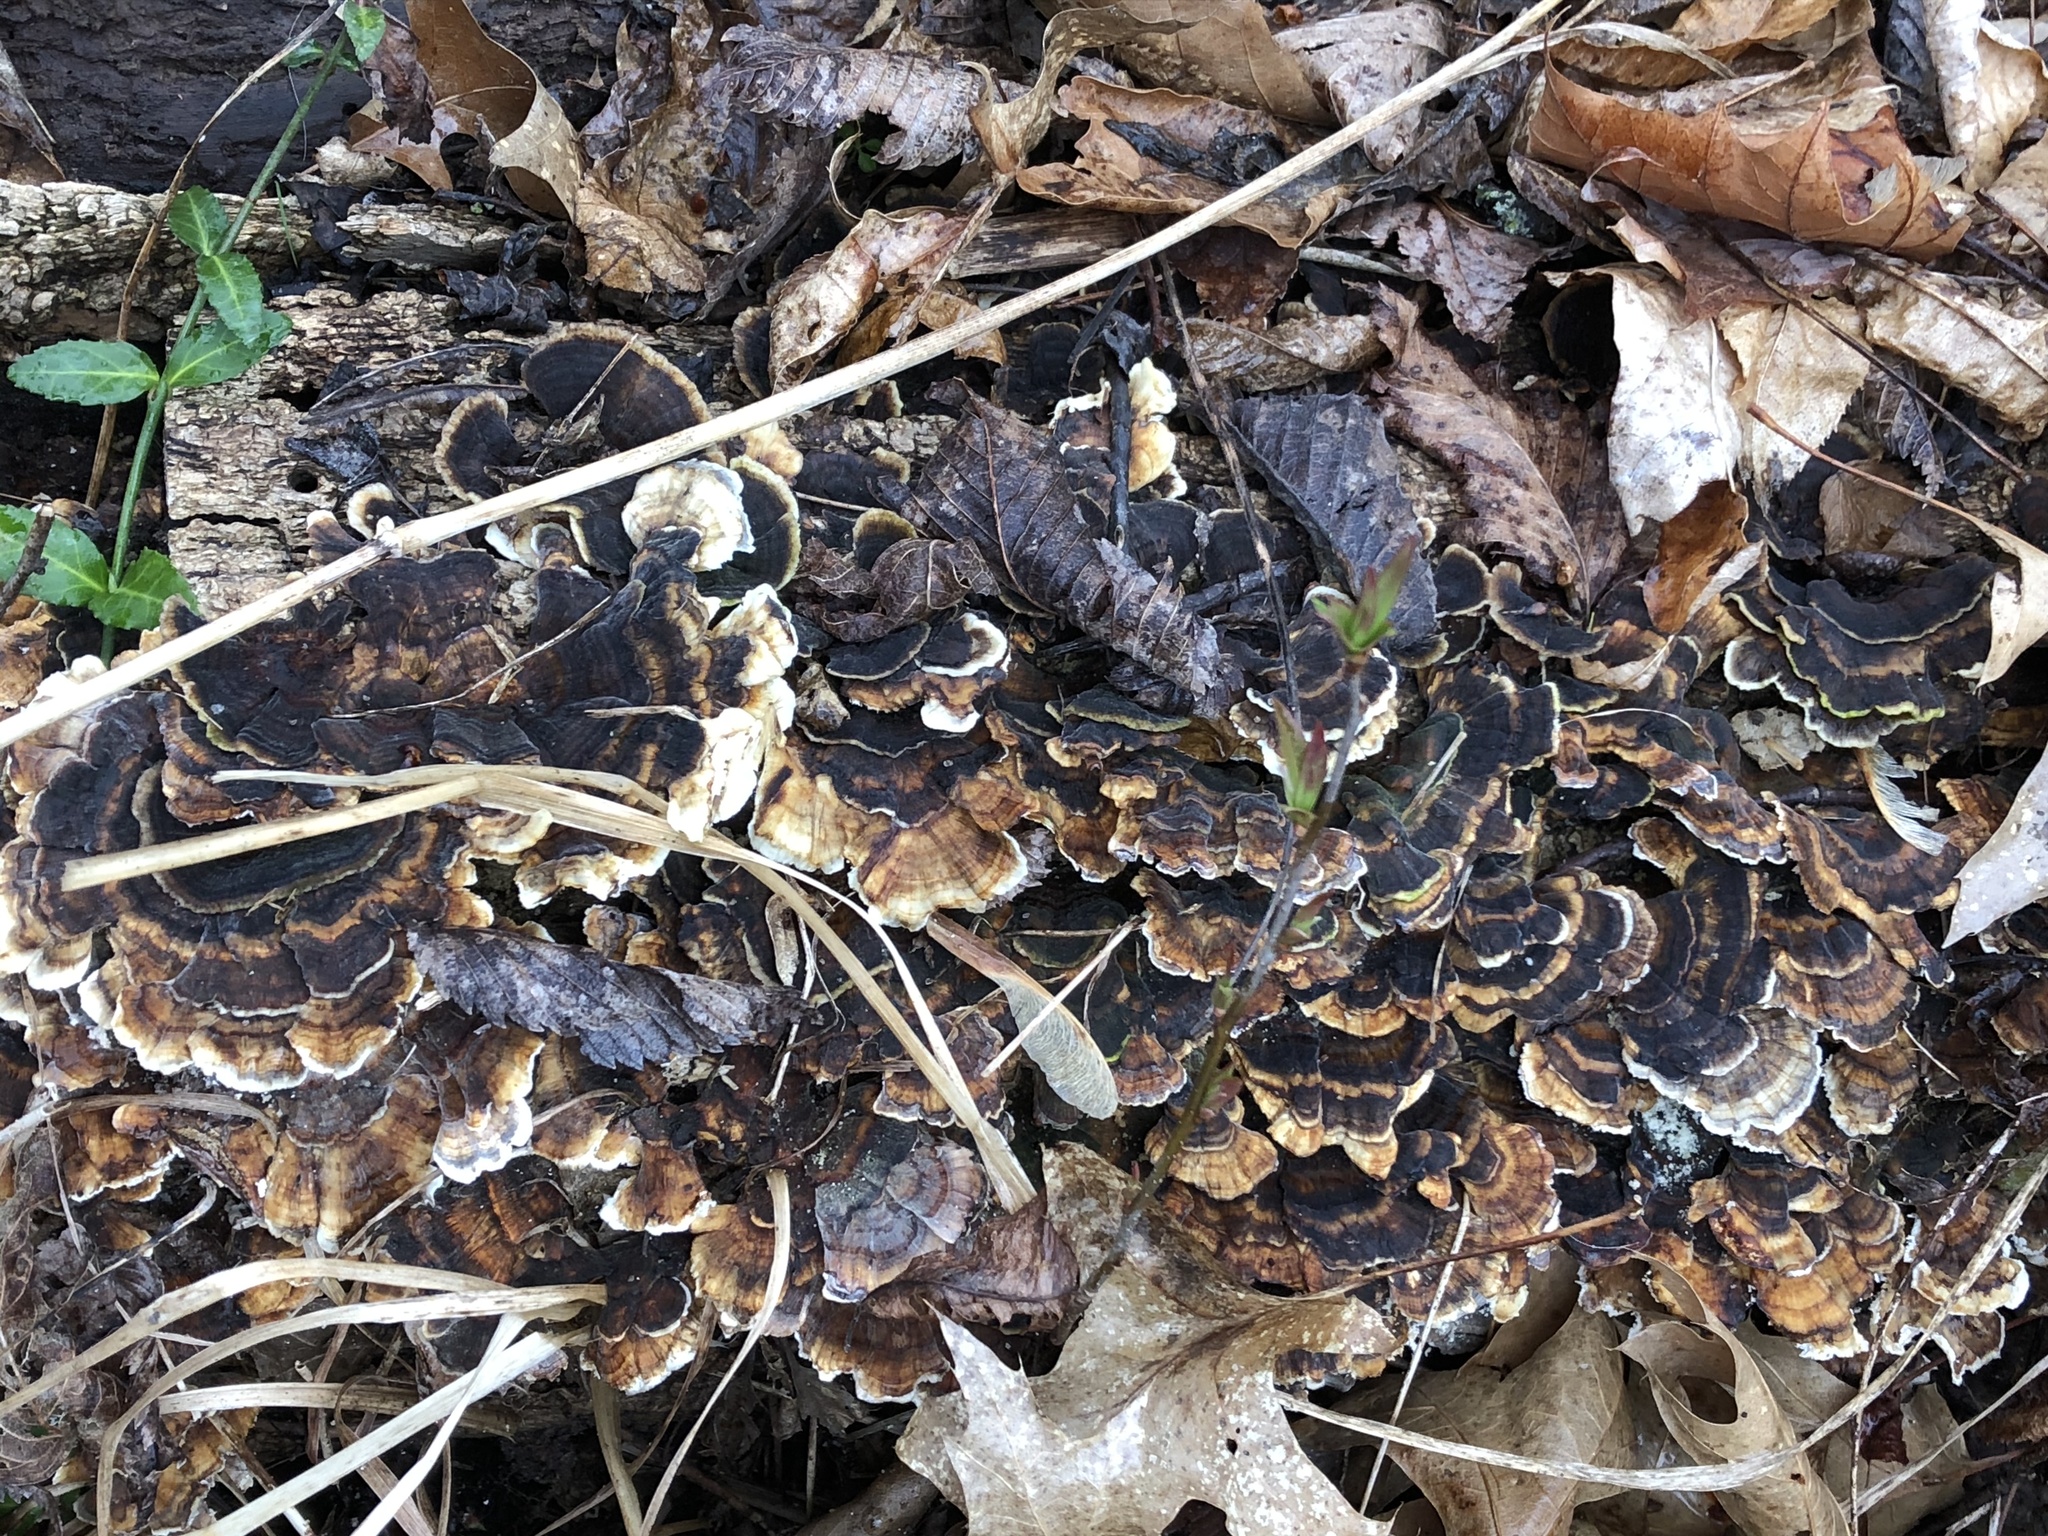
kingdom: Fungi
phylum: Basidiomycota
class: Agaricomycetes
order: Polyporales
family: Polyporaceae
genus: Trametes
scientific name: Trametes versicolor
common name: Turkeytail
